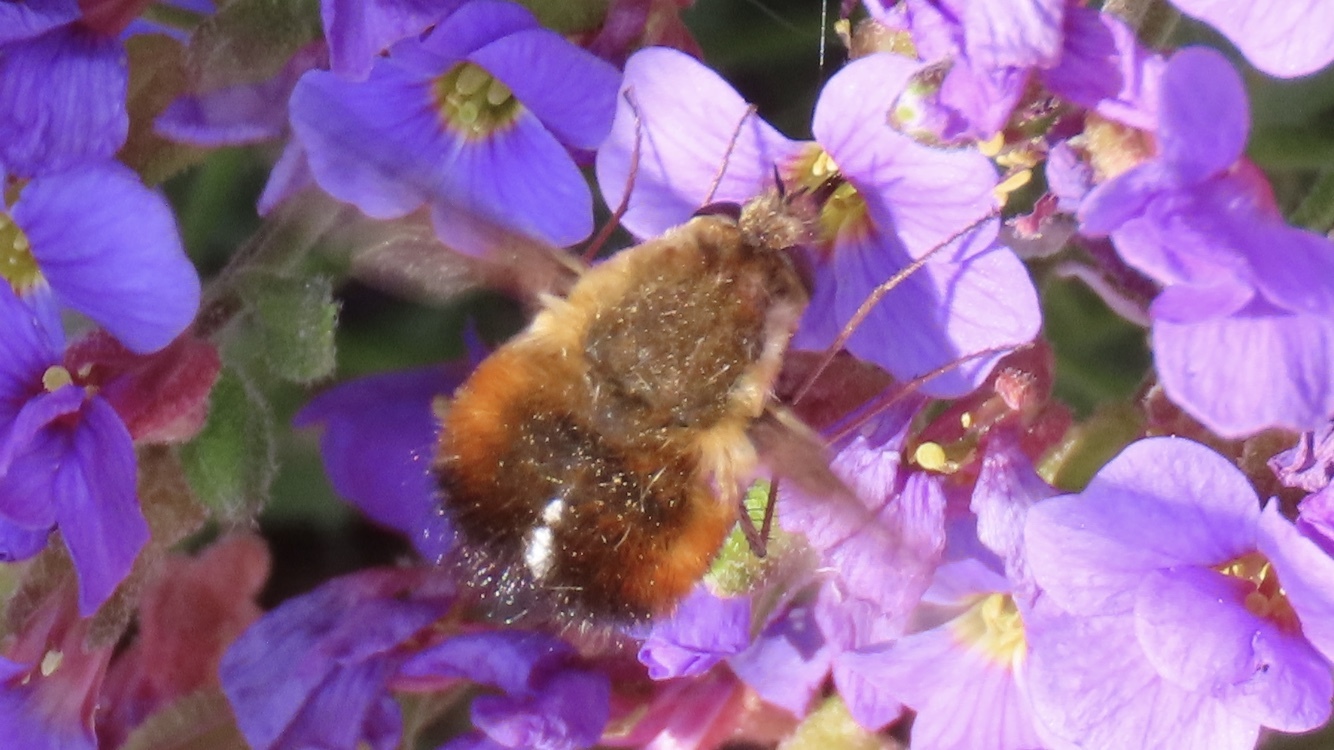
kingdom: Animalia
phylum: Arthropoda
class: Insecta
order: Diptera
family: Bombyliidae
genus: Bombylius
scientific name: Bombylius discolor
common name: Dotted bee-fly
